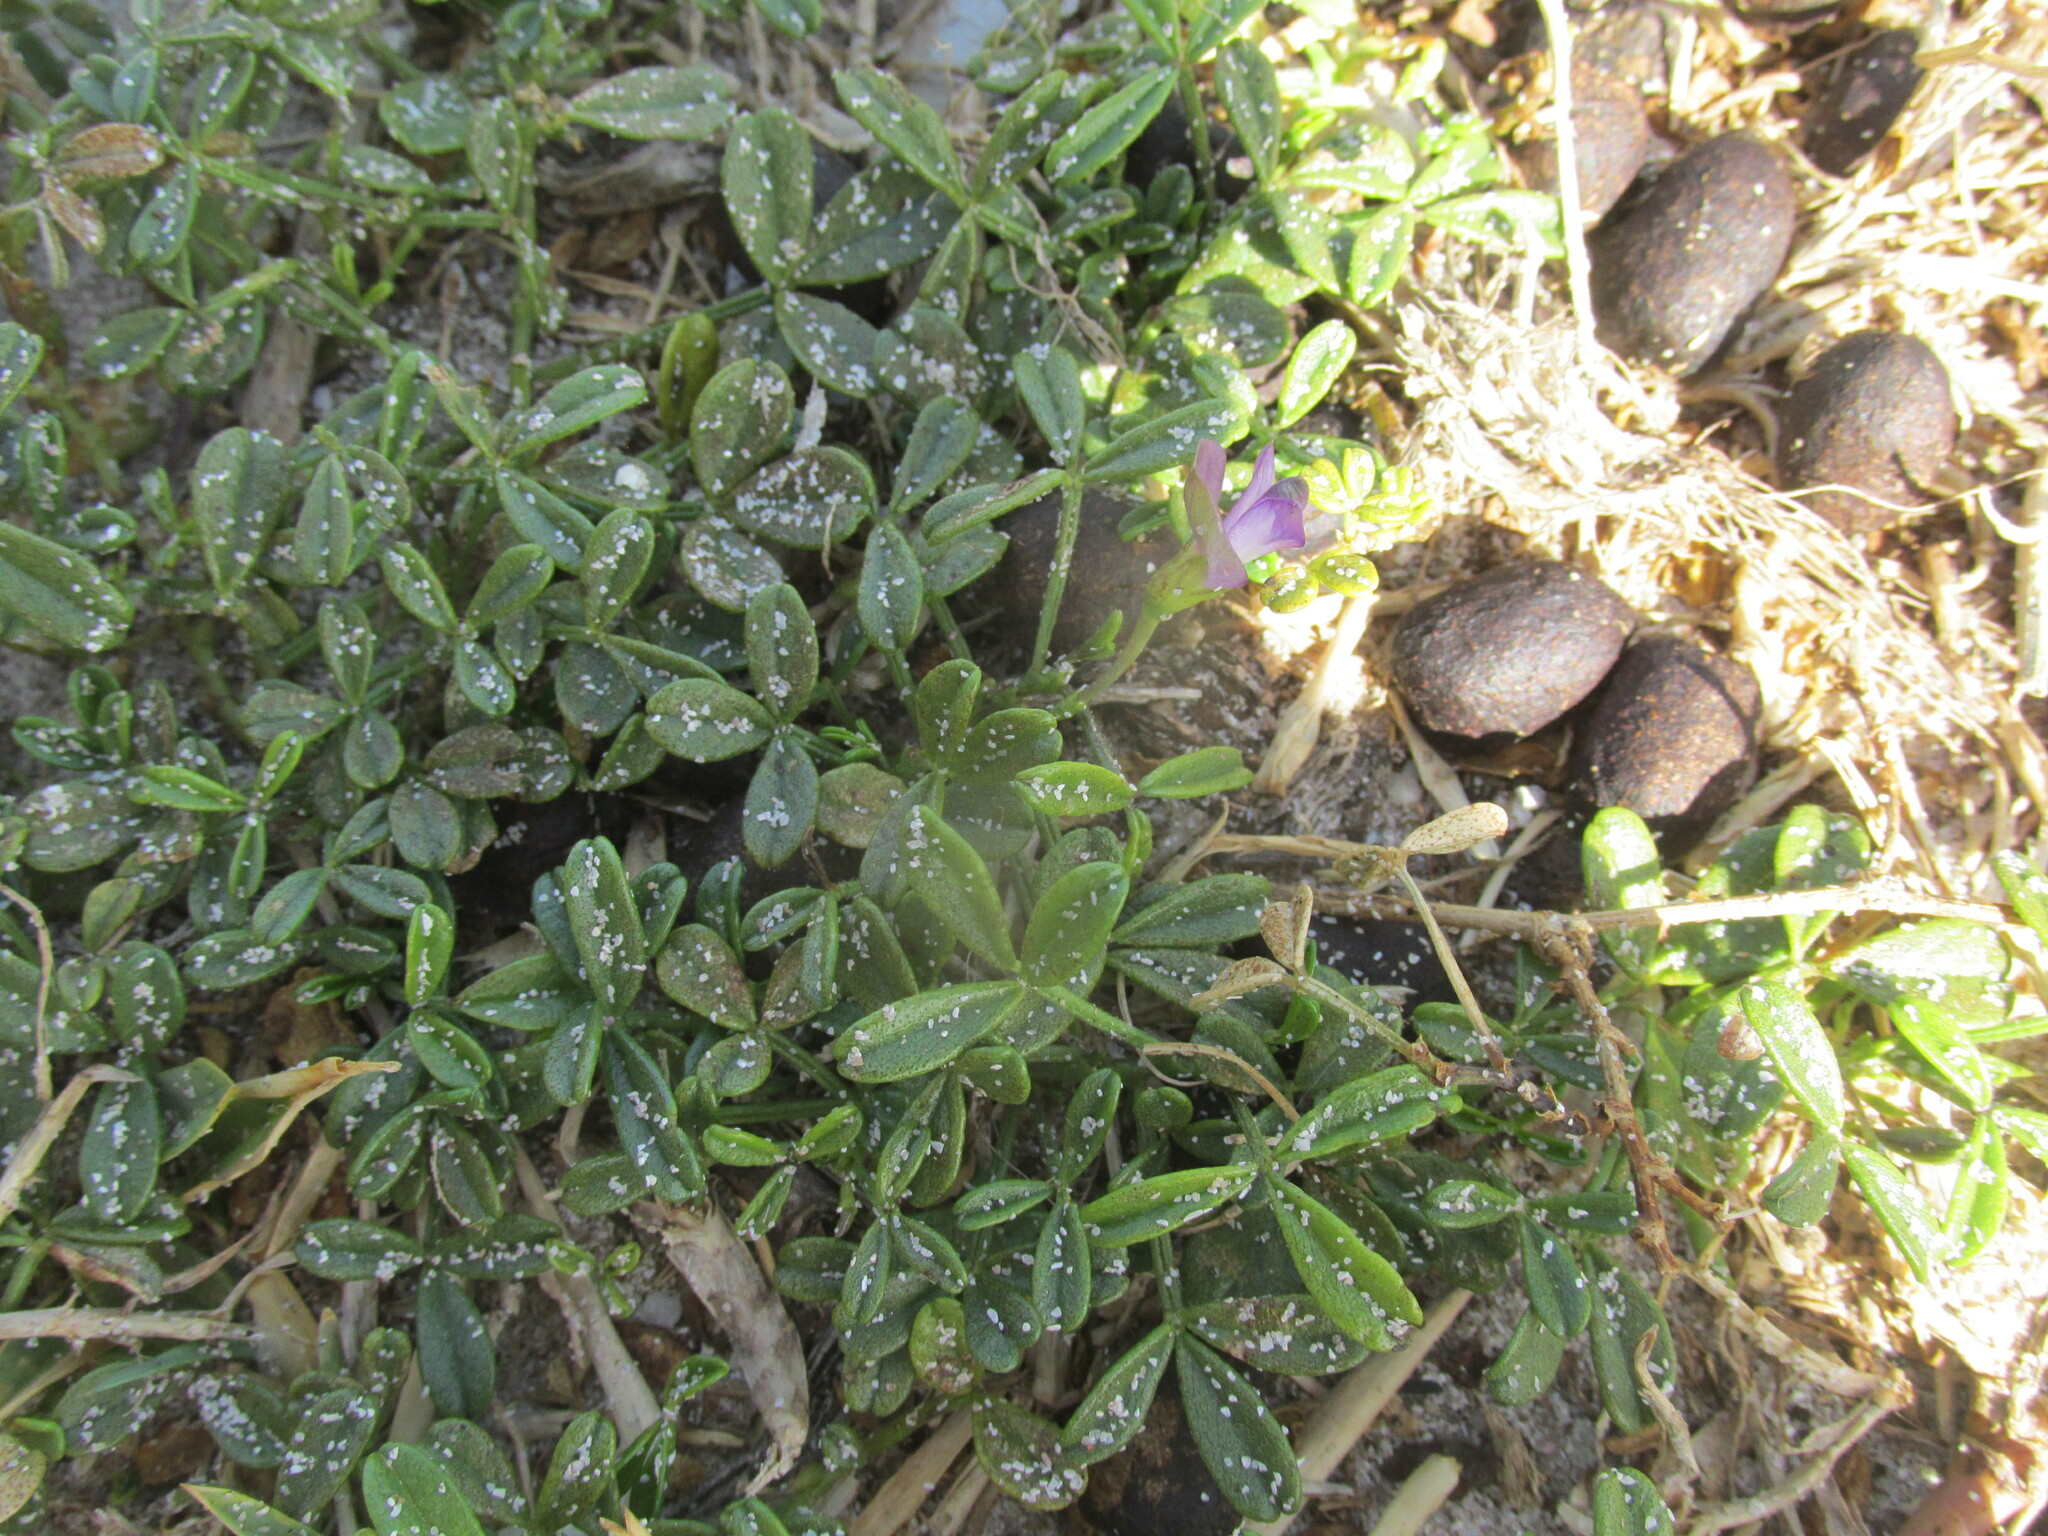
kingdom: Plantae
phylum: Tracheophyta
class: Magnoliopsida
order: Fabales
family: Fabaceae
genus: Psoralea
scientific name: Psoralea repens
